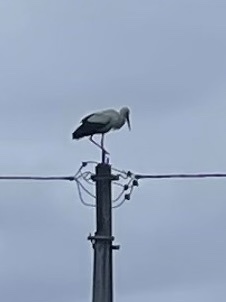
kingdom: Animalia
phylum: Chordata
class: Aves
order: Ciconiiformes
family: Ciconiidae
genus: Ciconia
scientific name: Ciconia ciconia
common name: White stork
